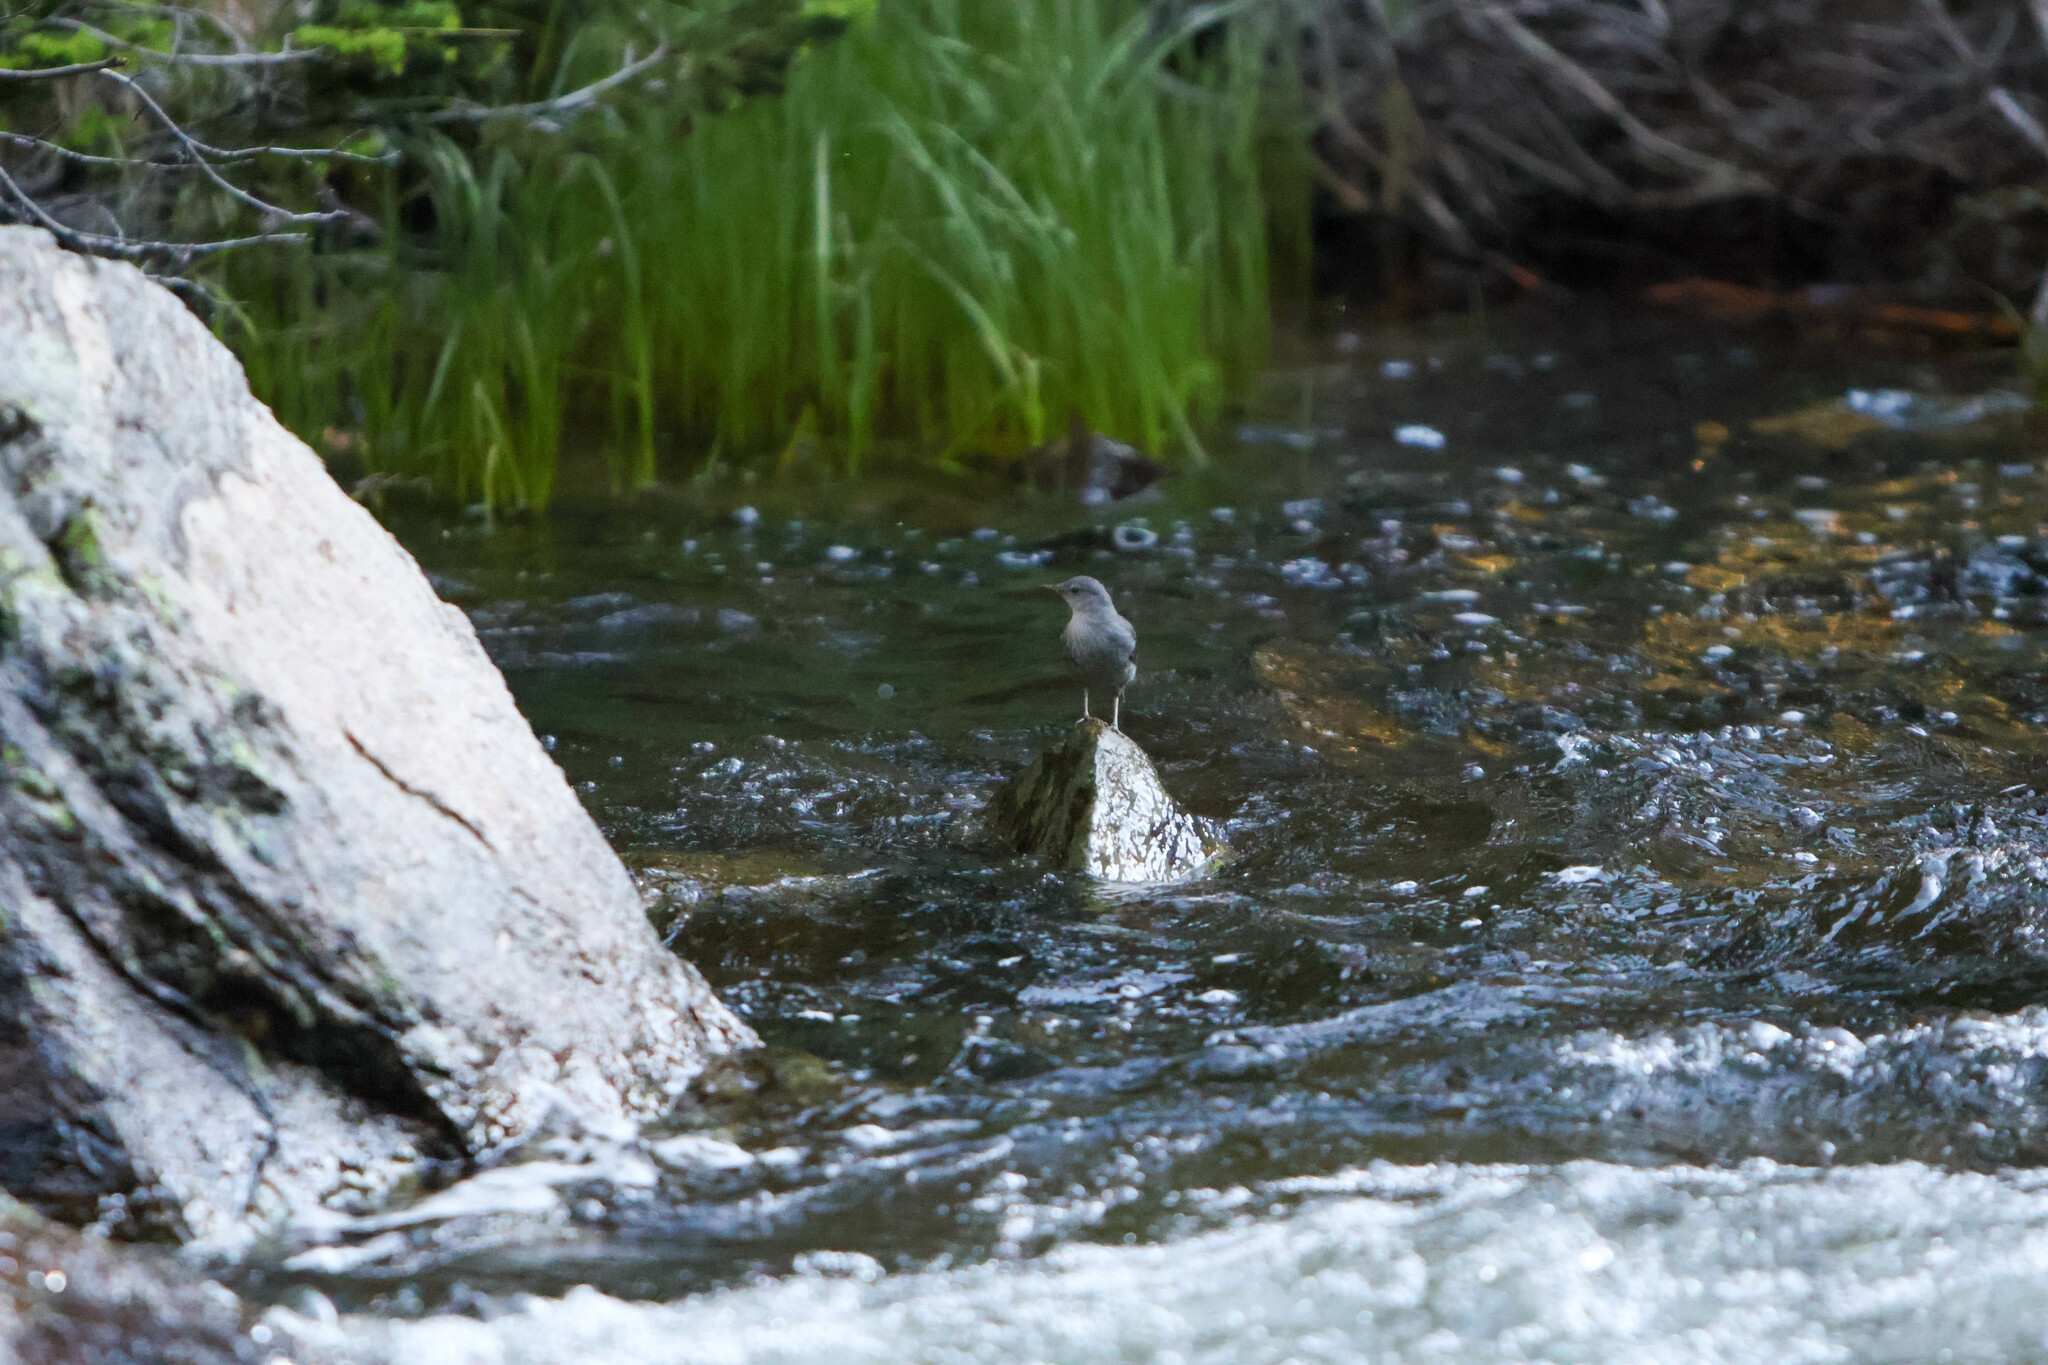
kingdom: Animalia
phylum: Chordata
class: Aves
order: Passeriformes
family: Cinclidae
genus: Cinclus
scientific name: Cinclus mexicanus
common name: American dipper
